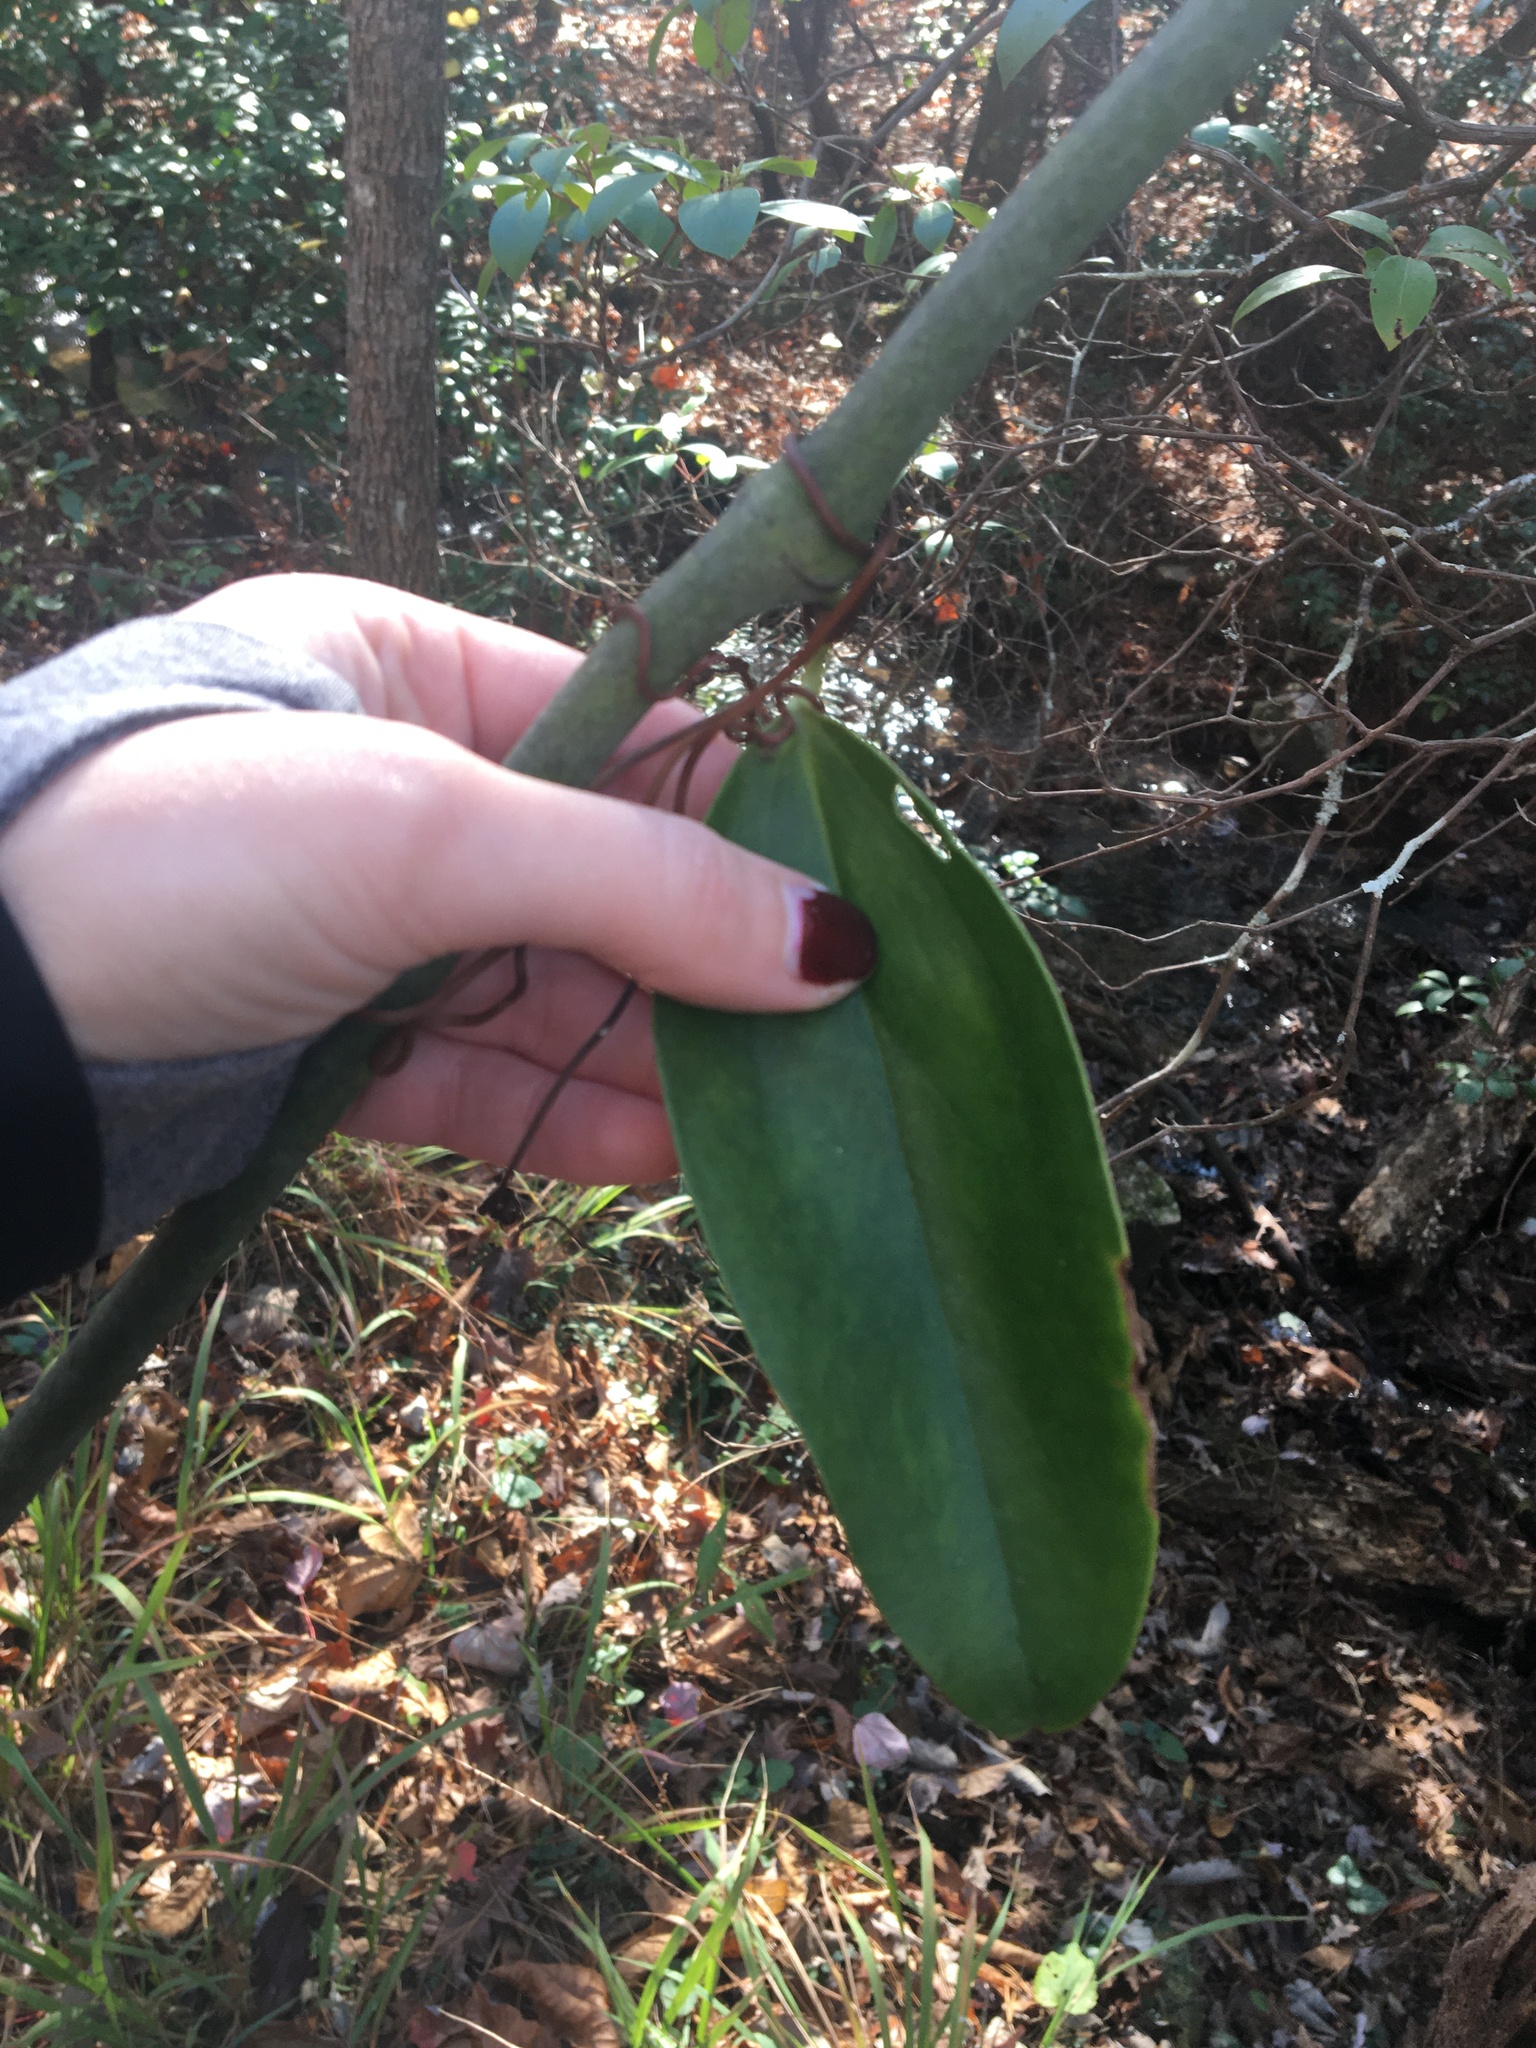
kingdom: Plantae
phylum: Tracheophyta
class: Liliopsida
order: Liliales
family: Smilacaceae
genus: Smilax
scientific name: Smilax laurifolia
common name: Bamboovine
